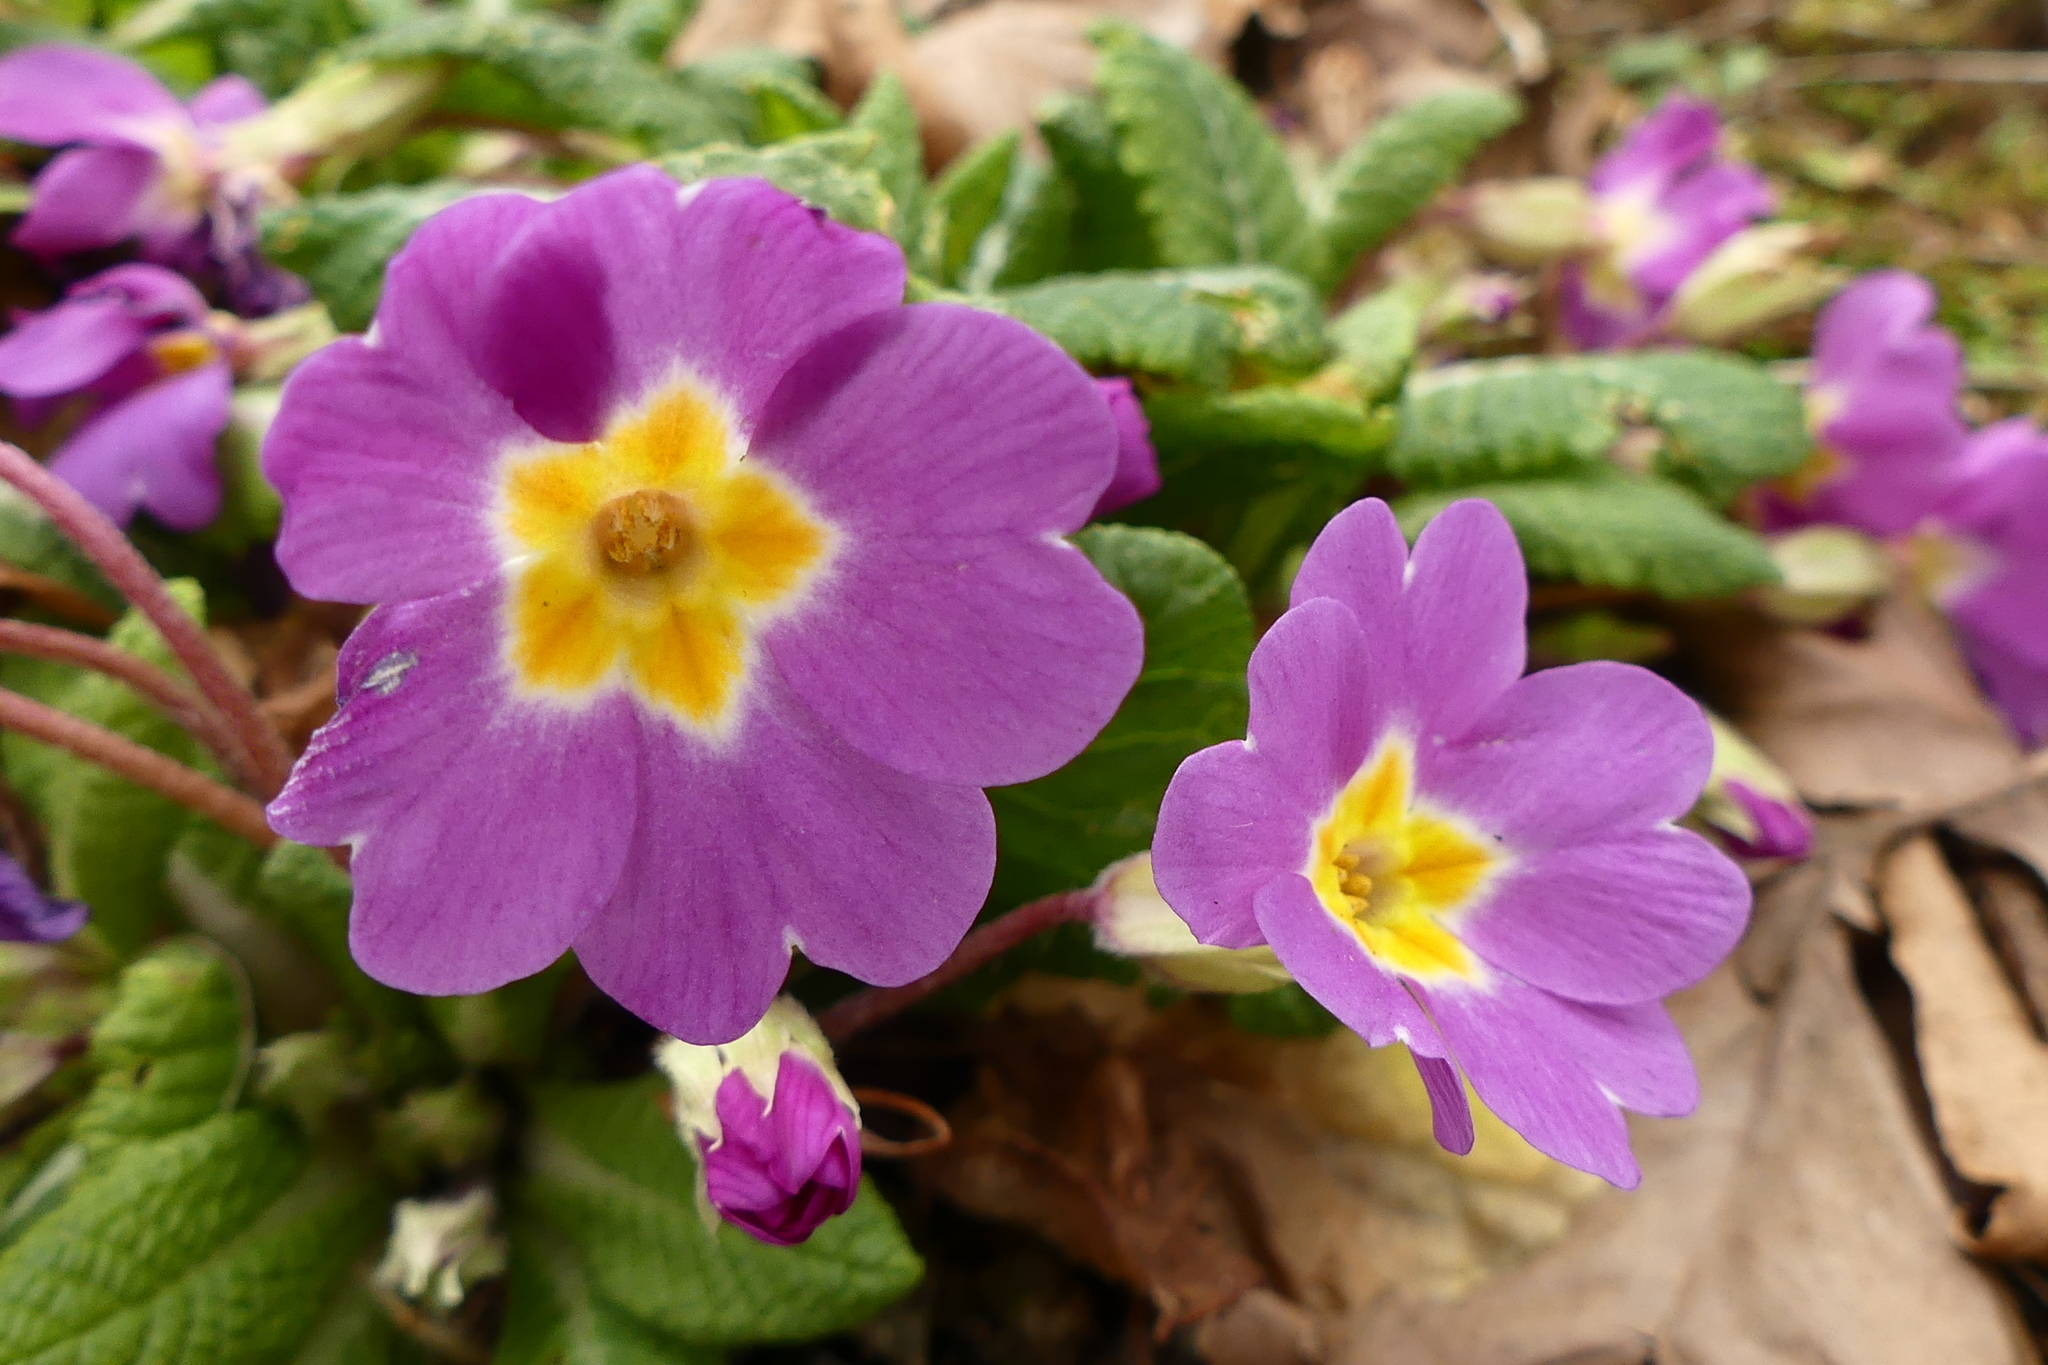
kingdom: Plantae
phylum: Tracheophyta
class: Magnoliopsida
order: Ericales
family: Primulaceae
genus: Primula
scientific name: Primula vulgaris
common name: Primrose
